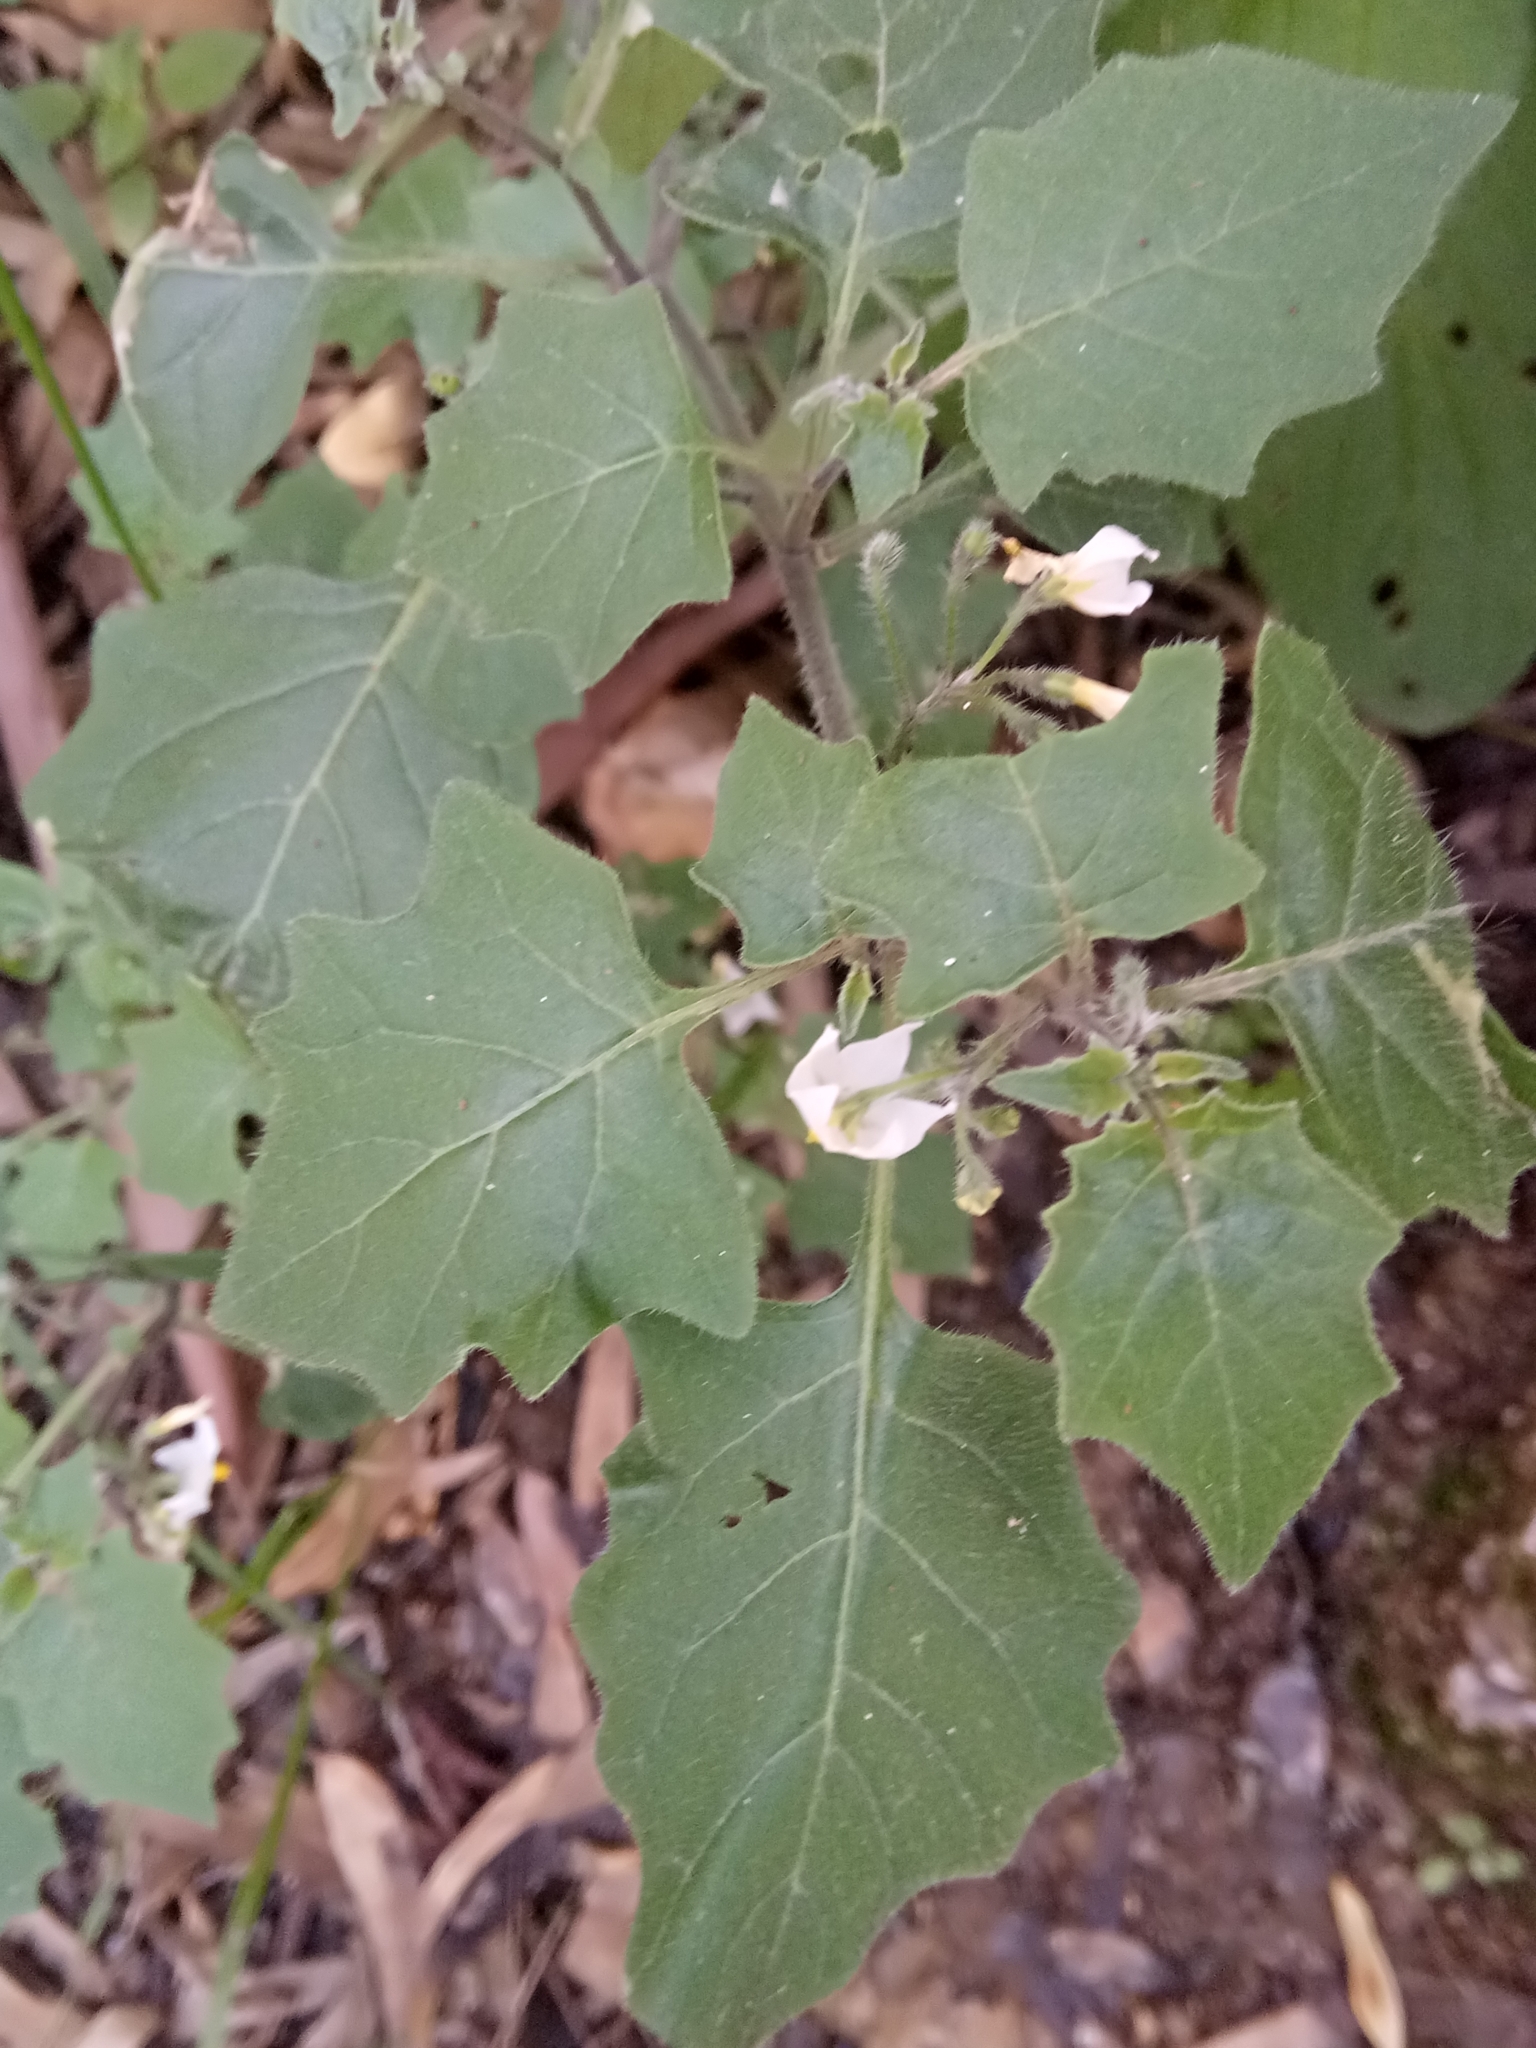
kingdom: Plantae
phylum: Tracheophyta
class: Magnoliopsida
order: Solanales
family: Solanaceae
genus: Solanum
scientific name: Solanum villosum
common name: Red nightshade
